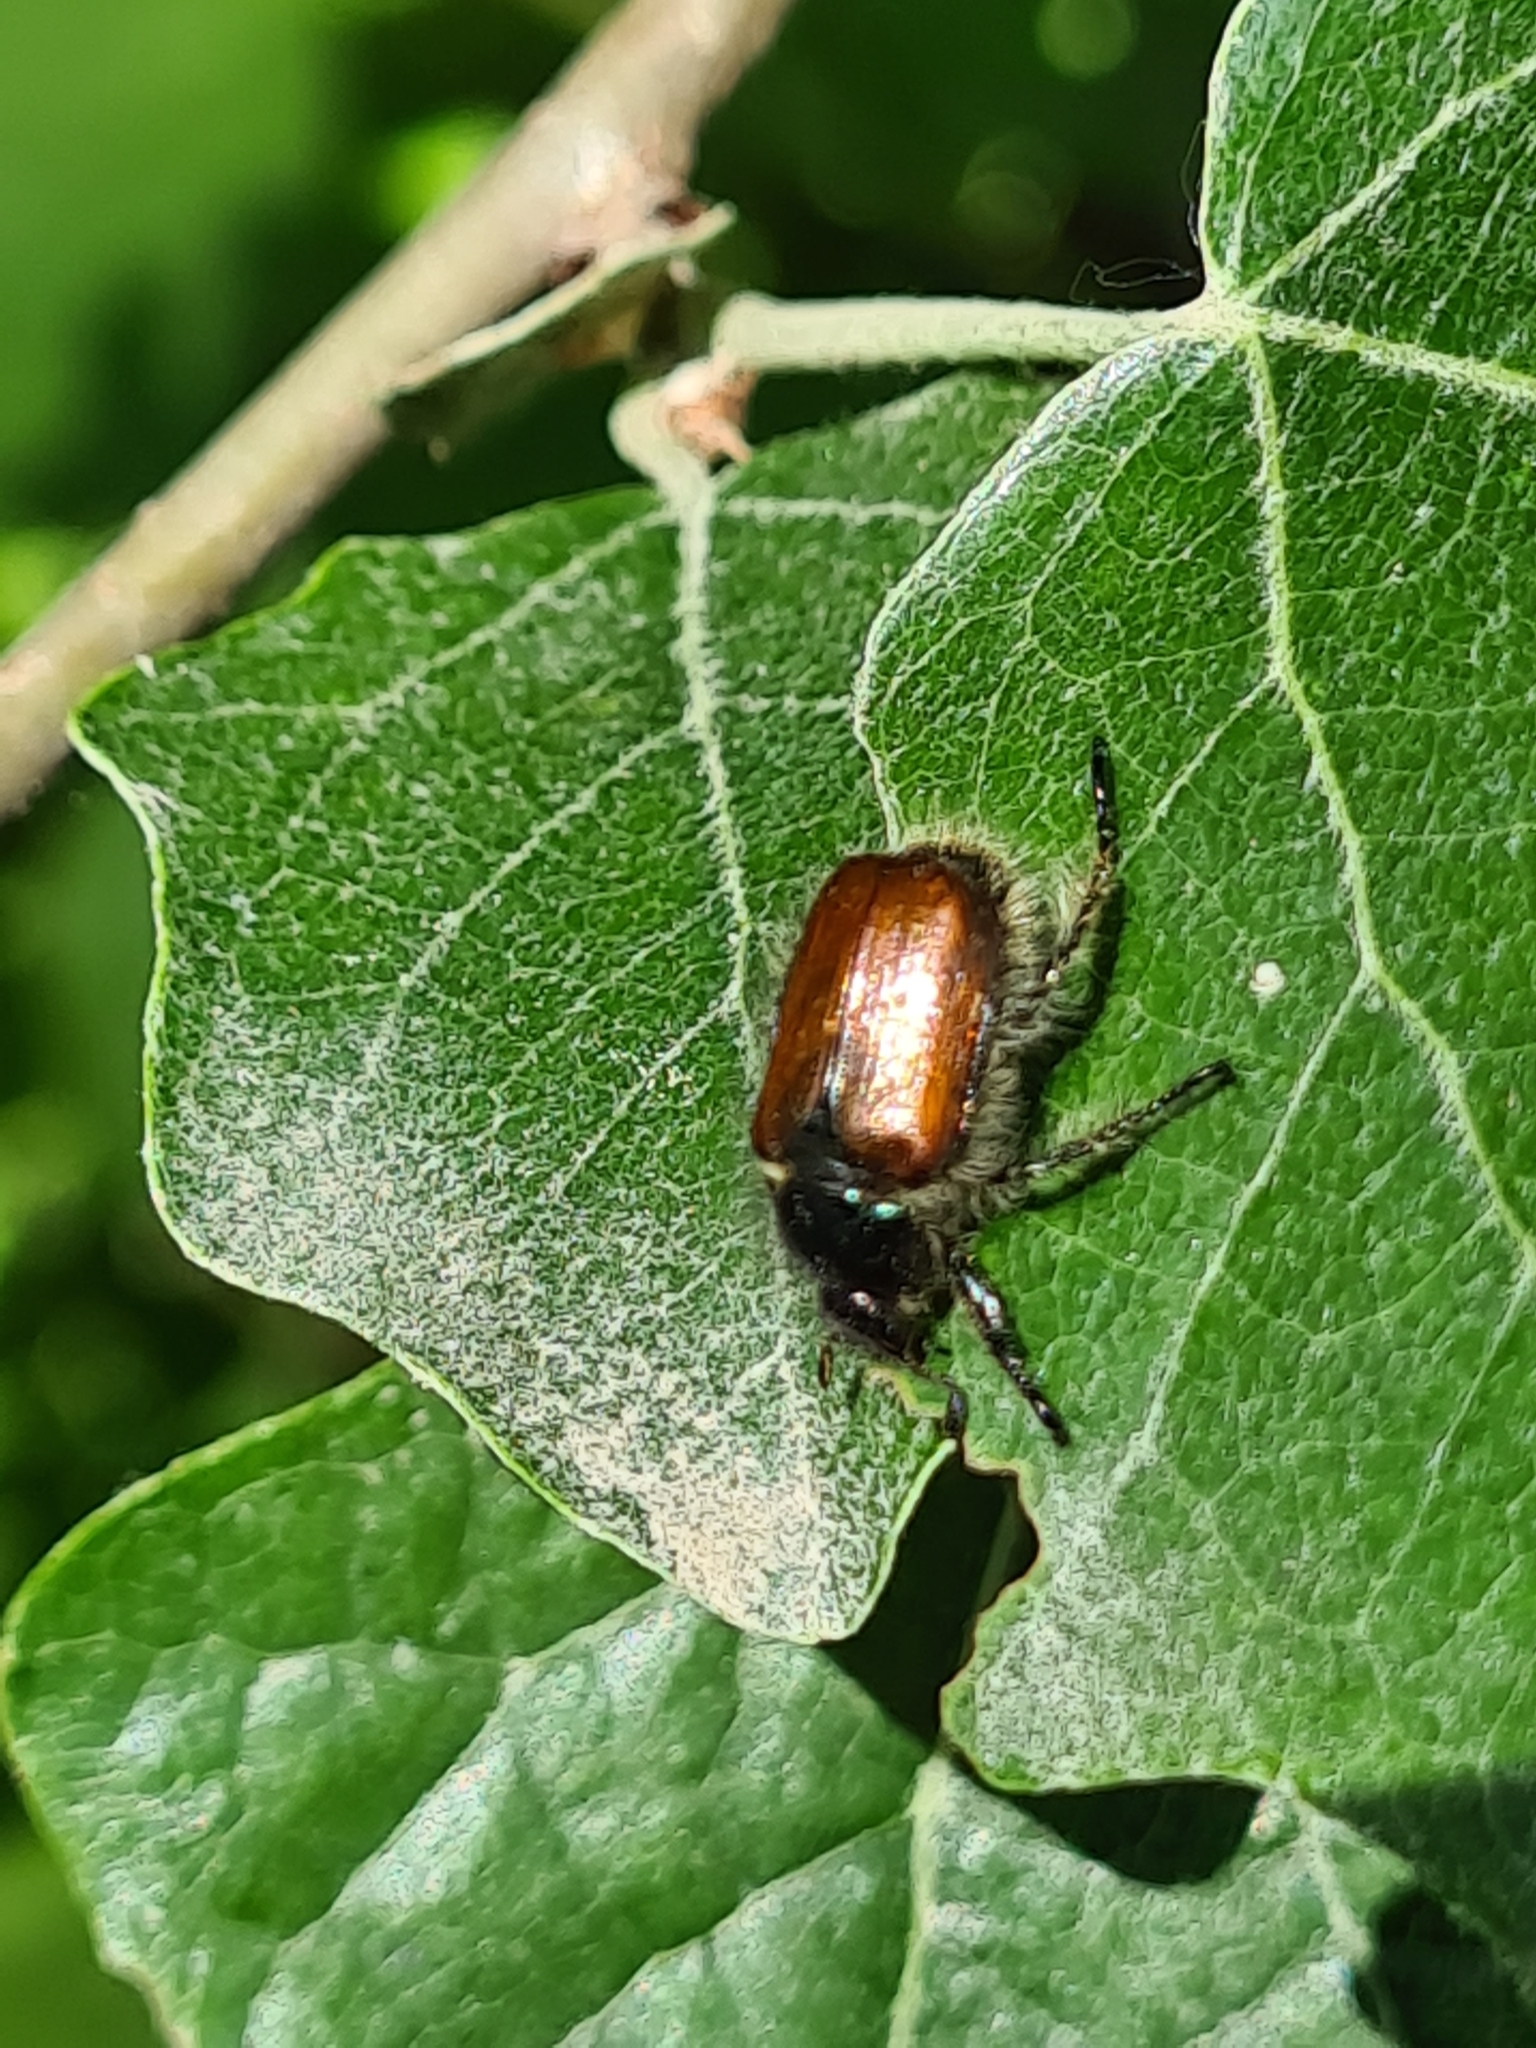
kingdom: Animalia
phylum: Arthropoda
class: Insecta
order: Coleoptera
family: Scarabaeidae
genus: Phyllopertha
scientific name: Phyllopertha horticola
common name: Garden chafer
